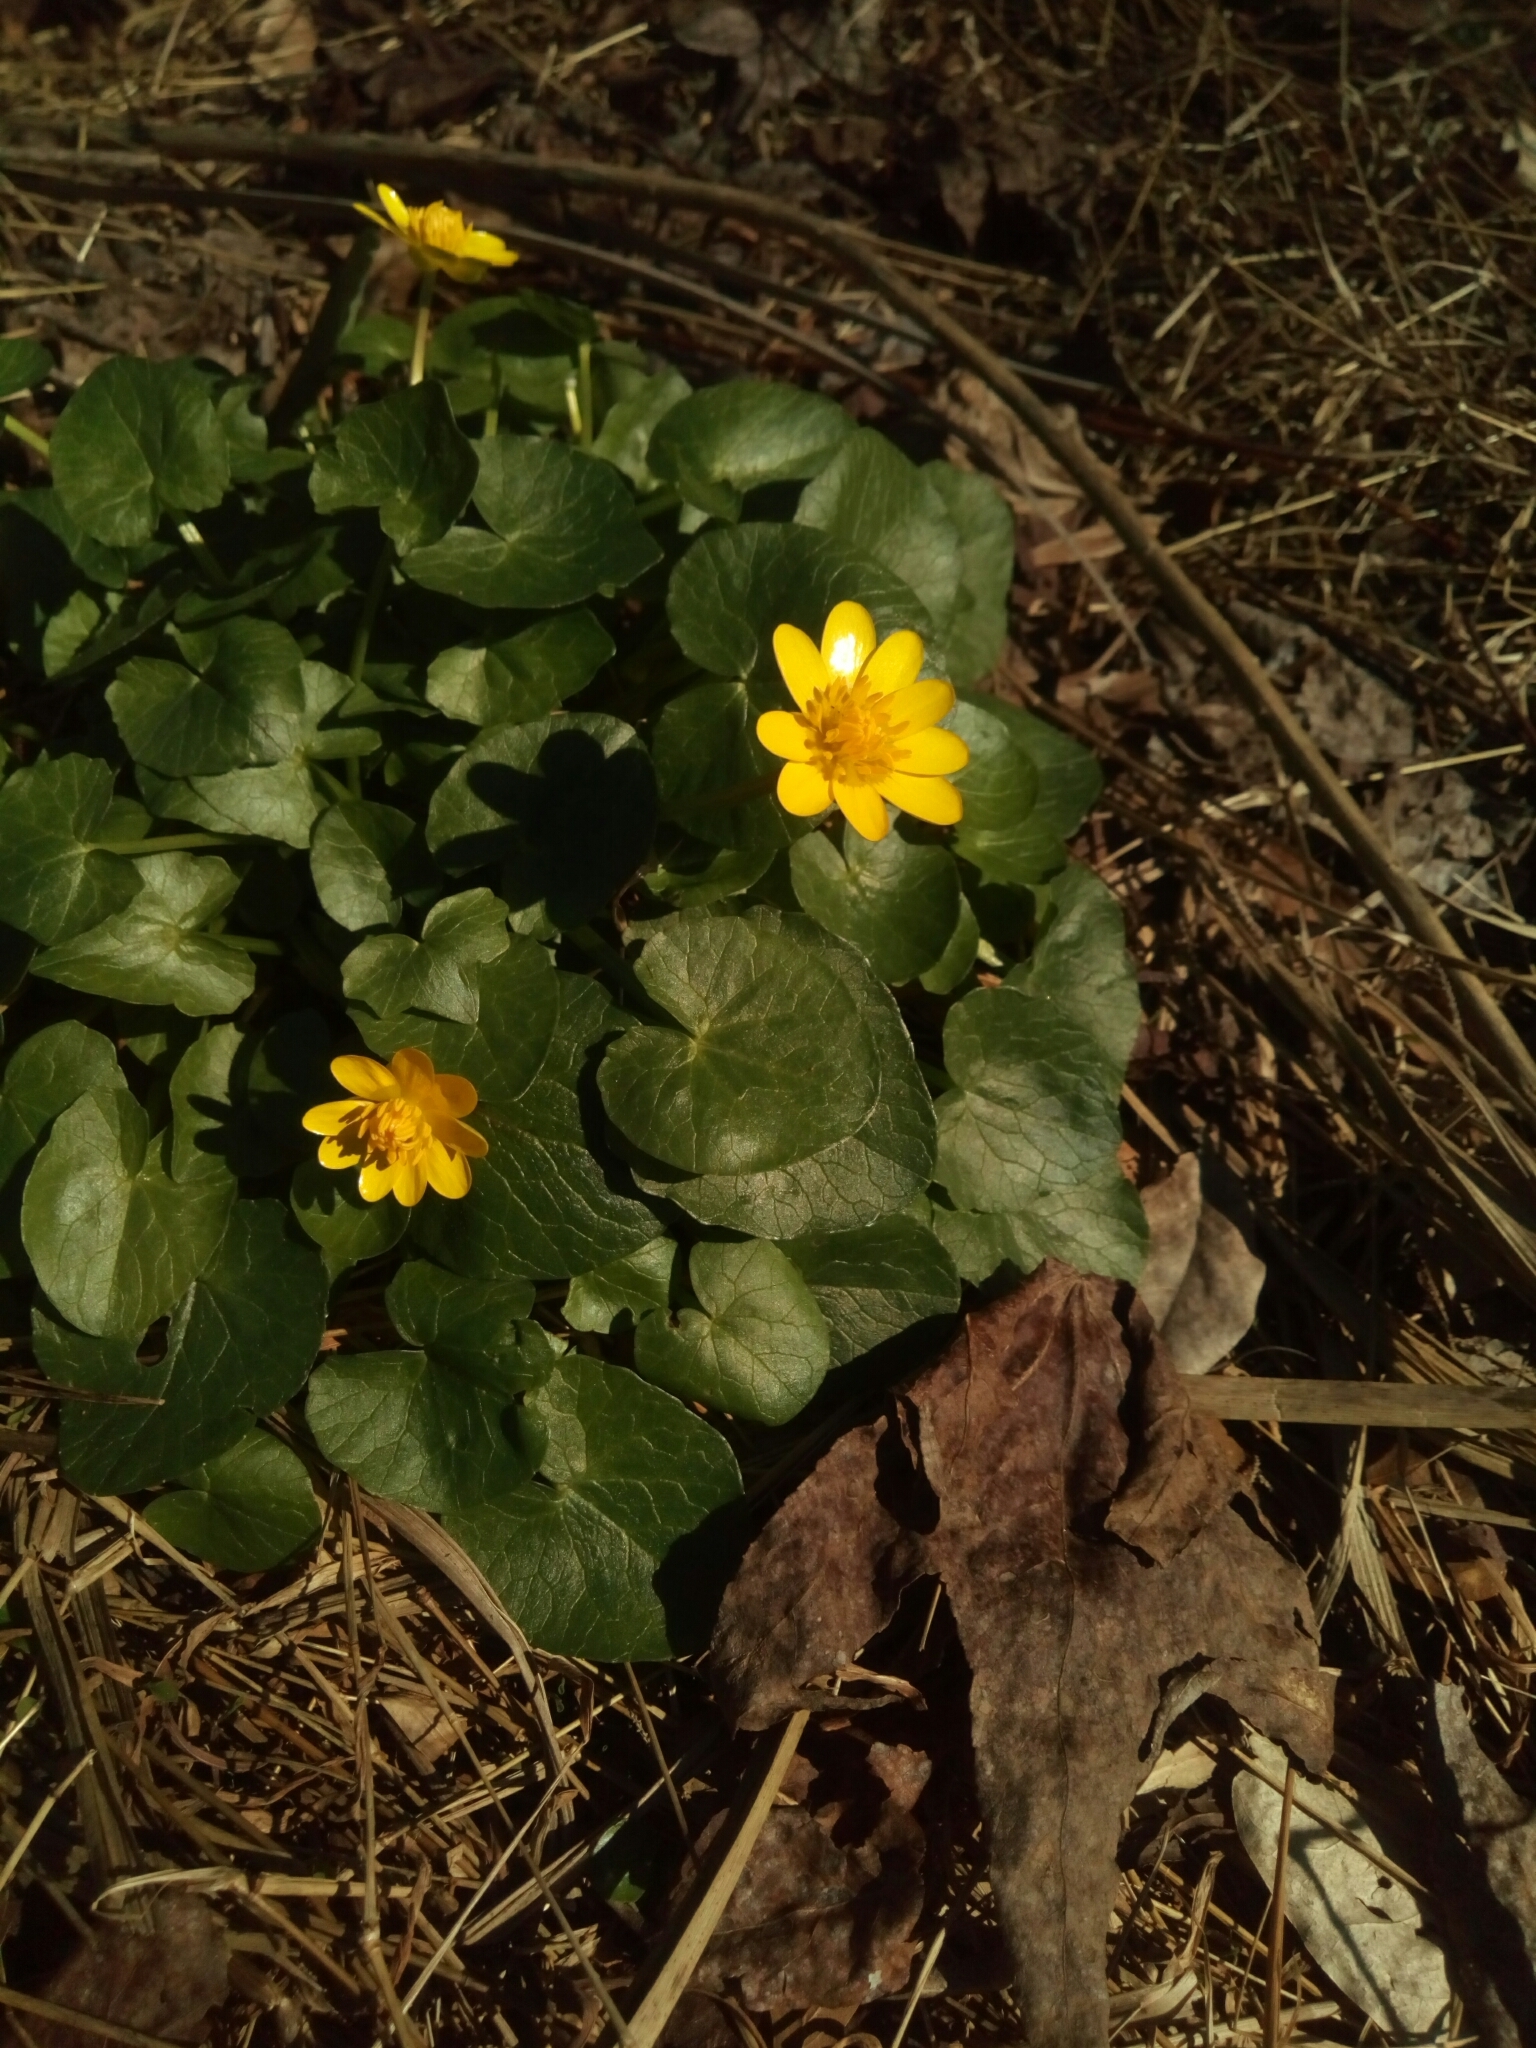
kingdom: Plantae
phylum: Tracheophyta
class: Magnoliopsida
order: Ranunculales
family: Ranunculaceae
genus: Ficaria
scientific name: Ficaria verna
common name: Lesser celandine
